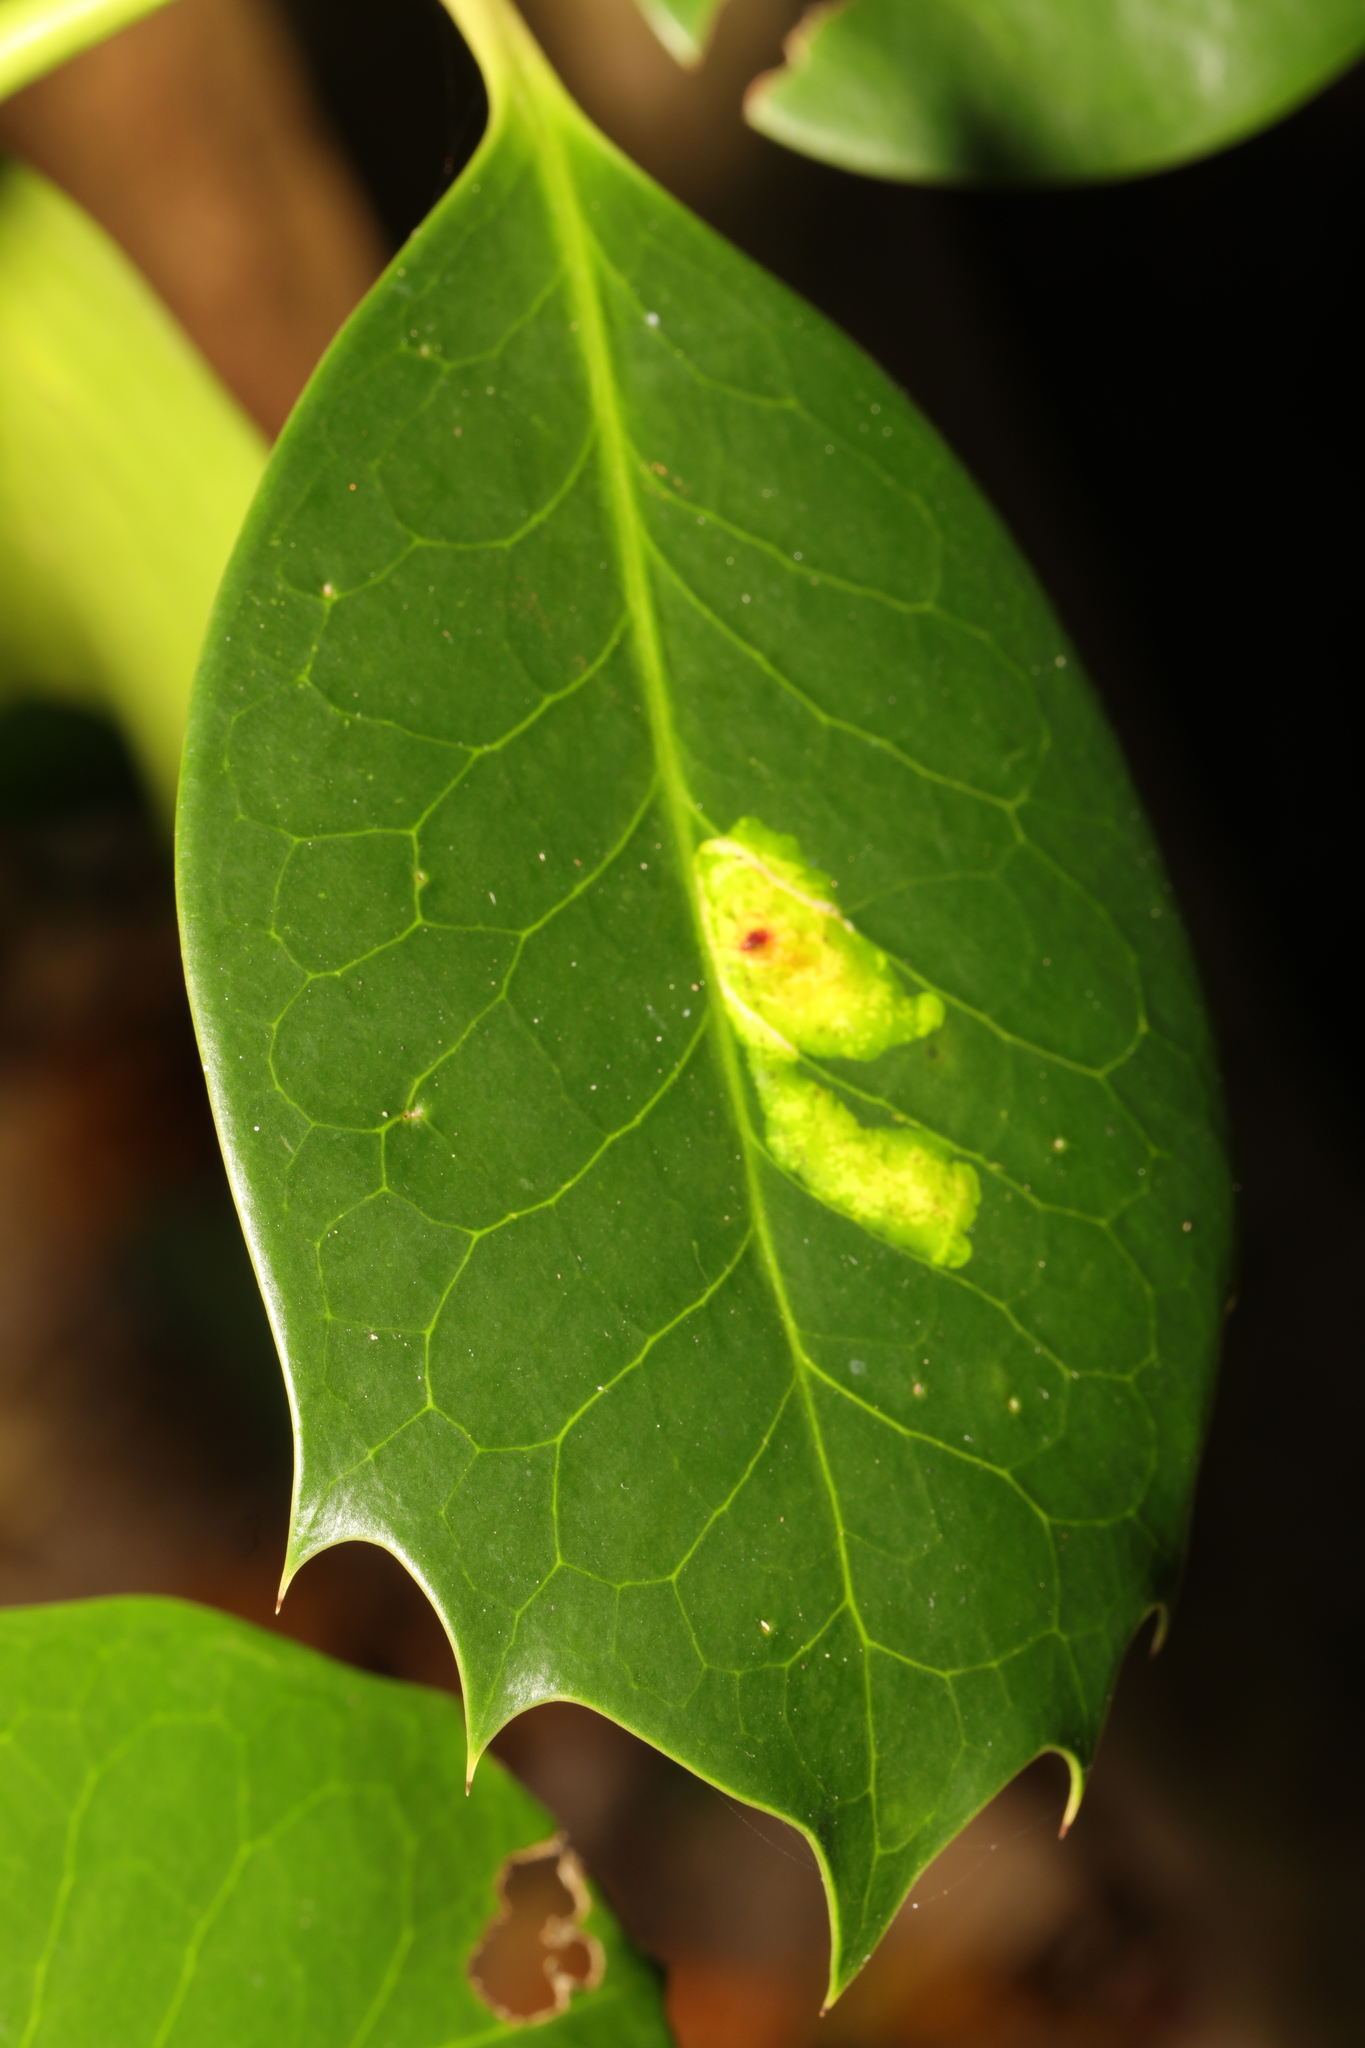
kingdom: Animalia
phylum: Arthropoda
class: Insecta
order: Diptera
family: Agromyzidae
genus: Phytomyza
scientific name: Phytomyza ilicis
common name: Holly leafminer
